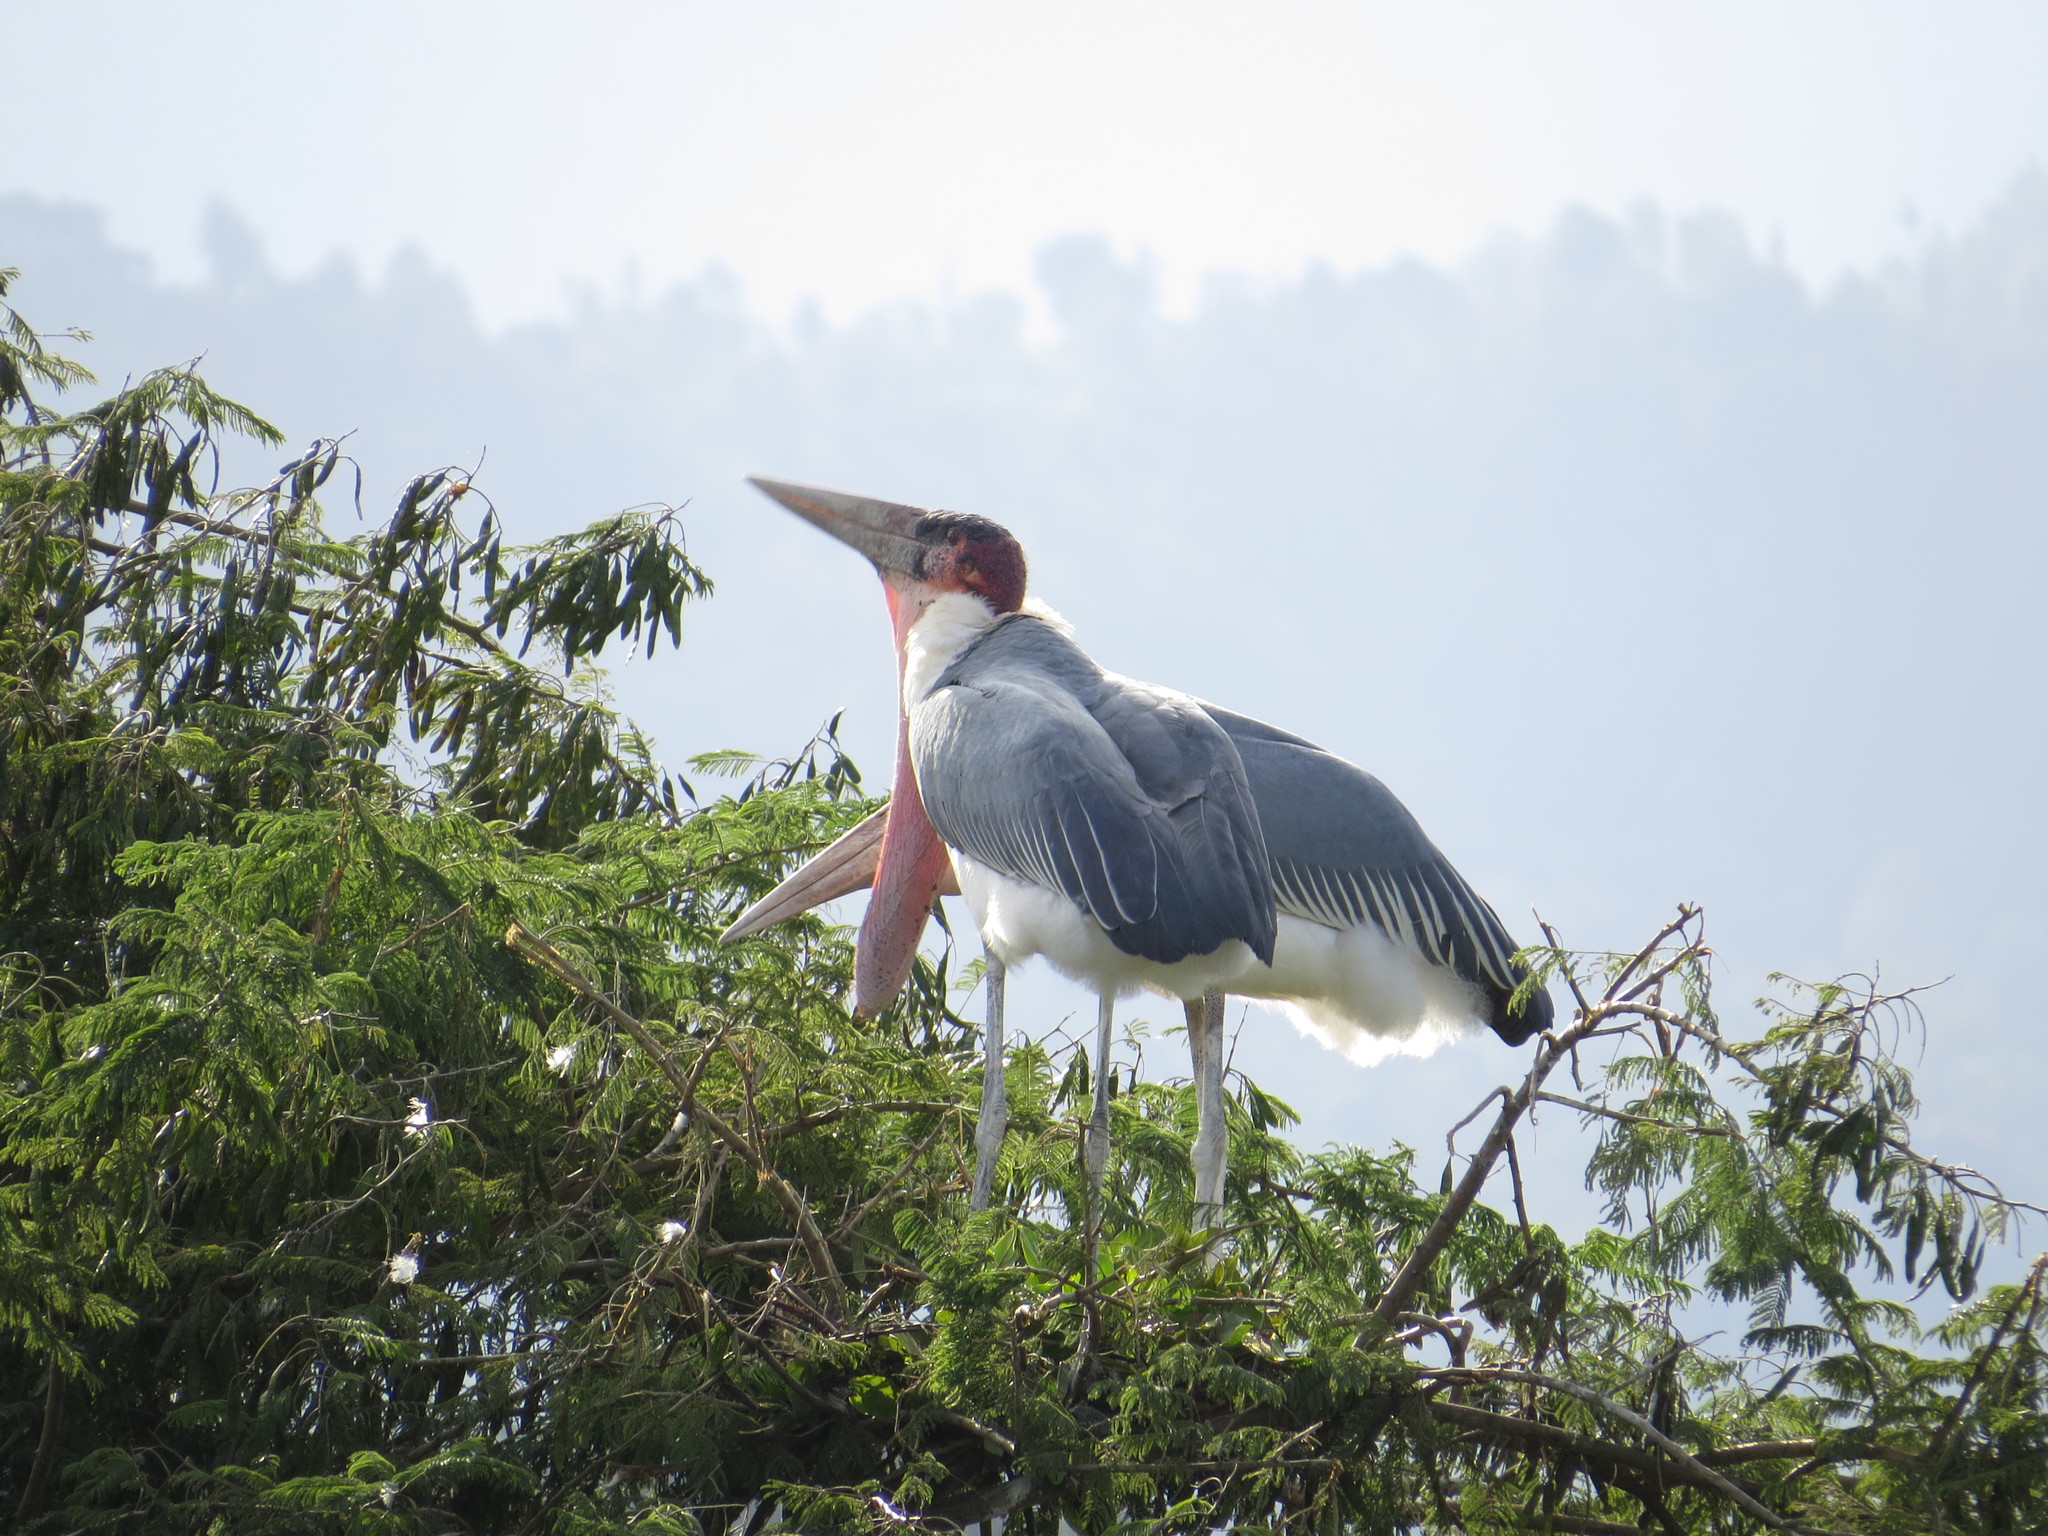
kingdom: Animalia
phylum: Chordata
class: Aves
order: Ciconiiformes
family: Ciconiidae
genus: Leptoptilos
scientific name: Leptoptilos crumenifer
